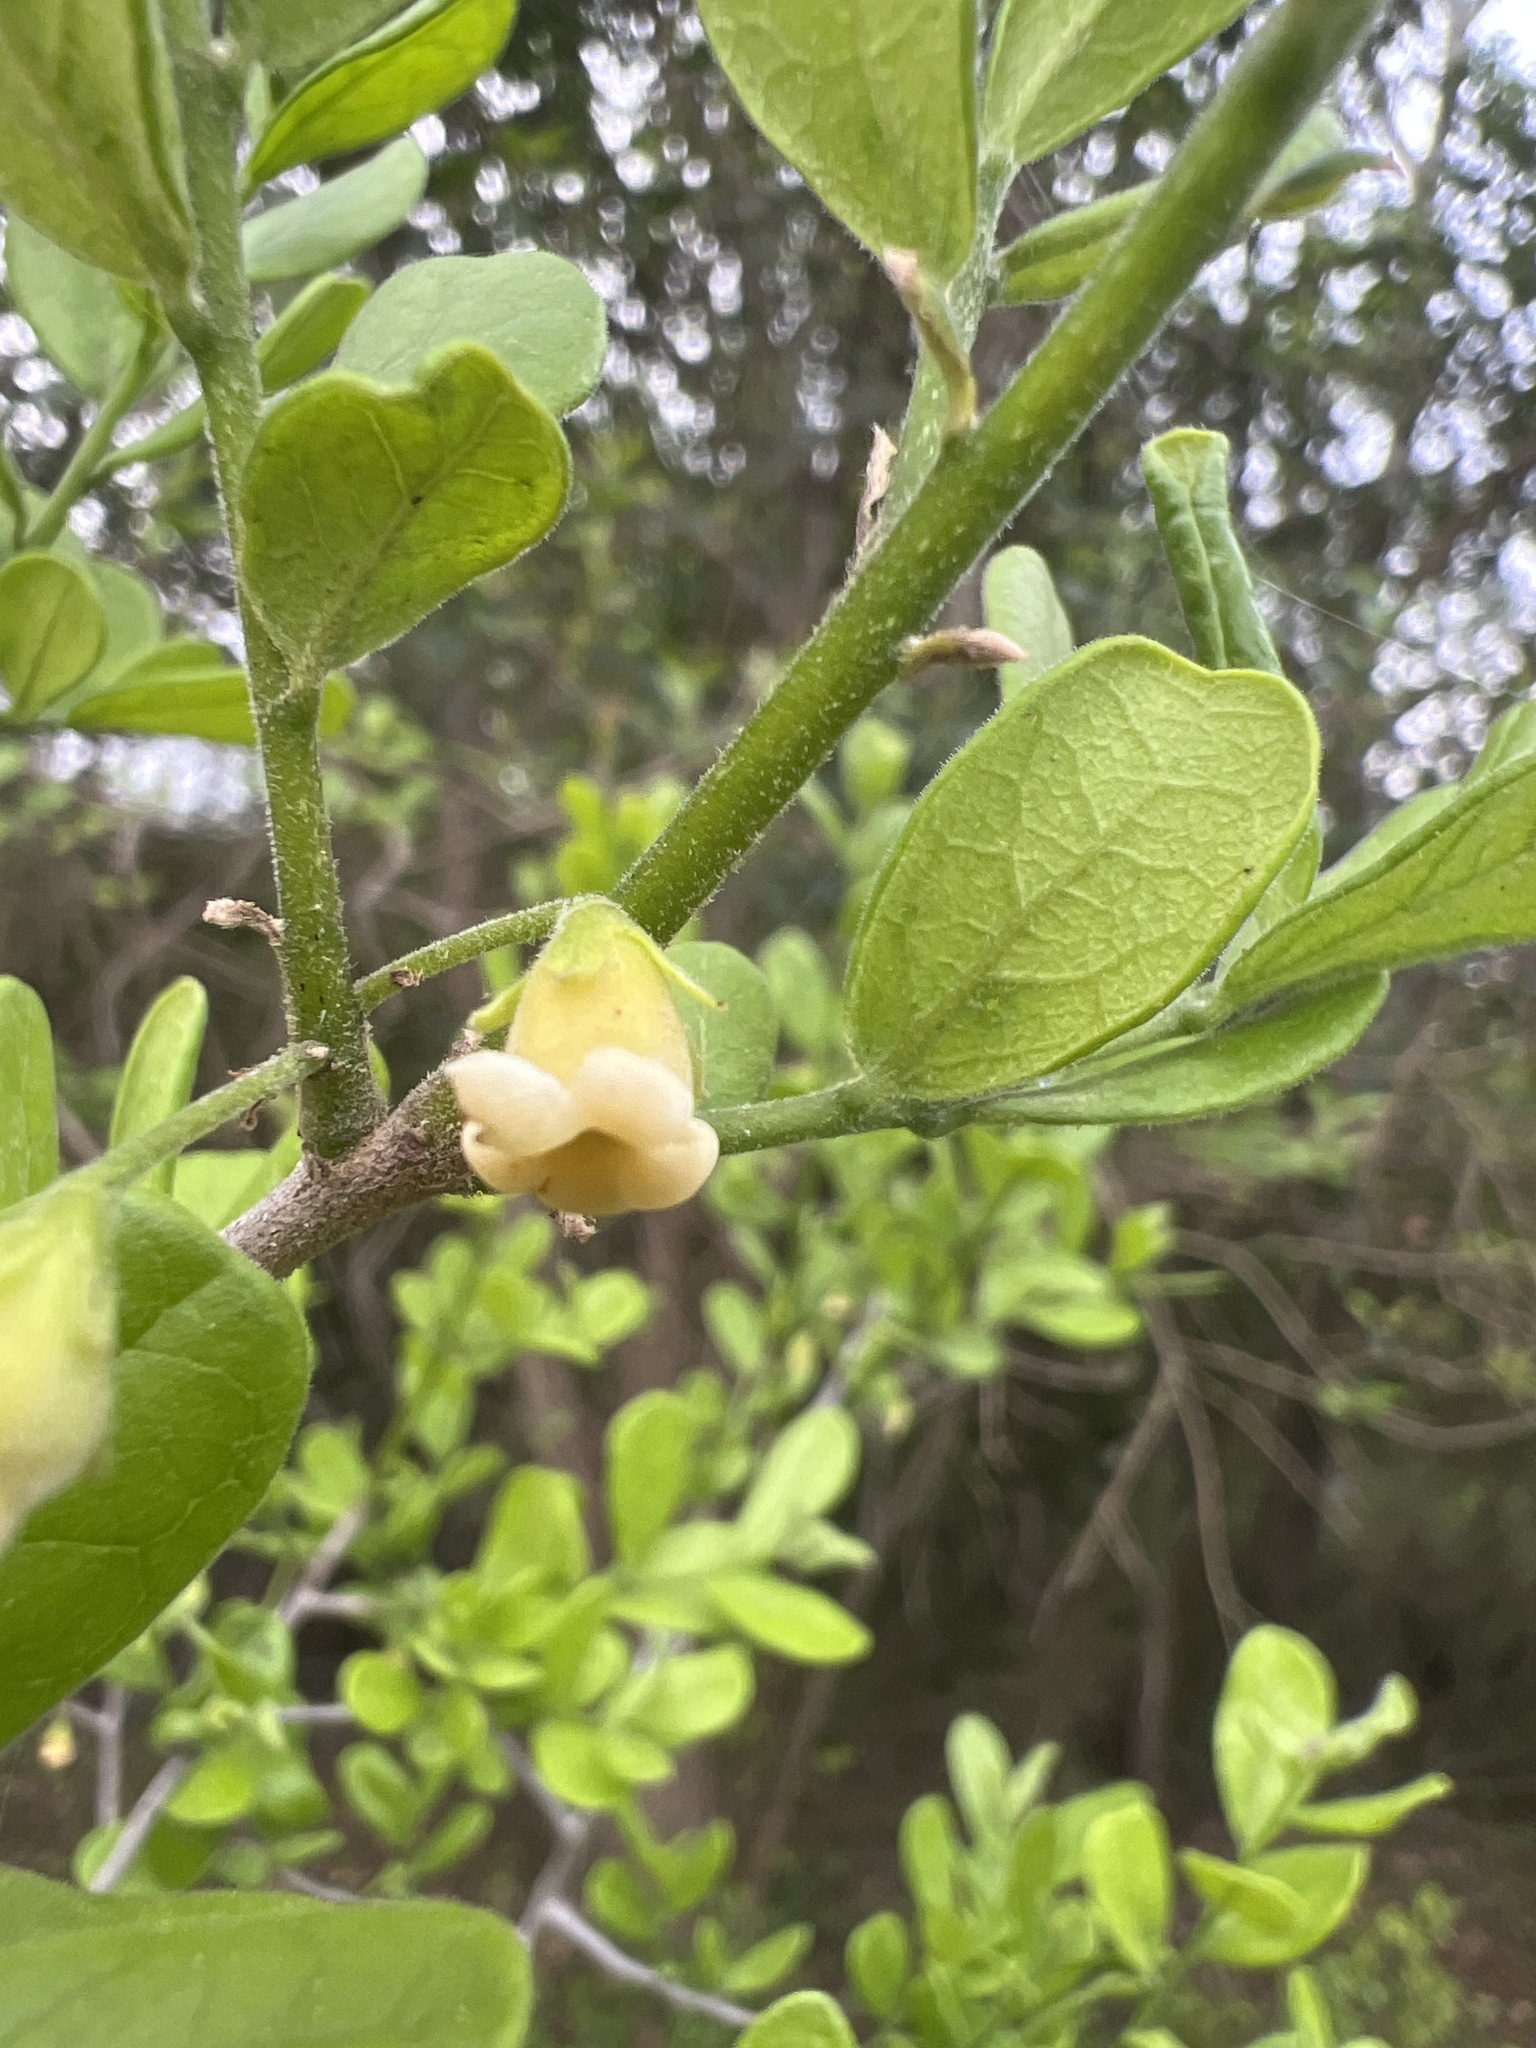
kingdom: Plantae
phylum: Tracheophyta
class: Magnoliopsida
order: Ericales
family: Ebenaceae
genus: Diospyros
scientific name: Diospyros texana
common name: Texas persimmon
